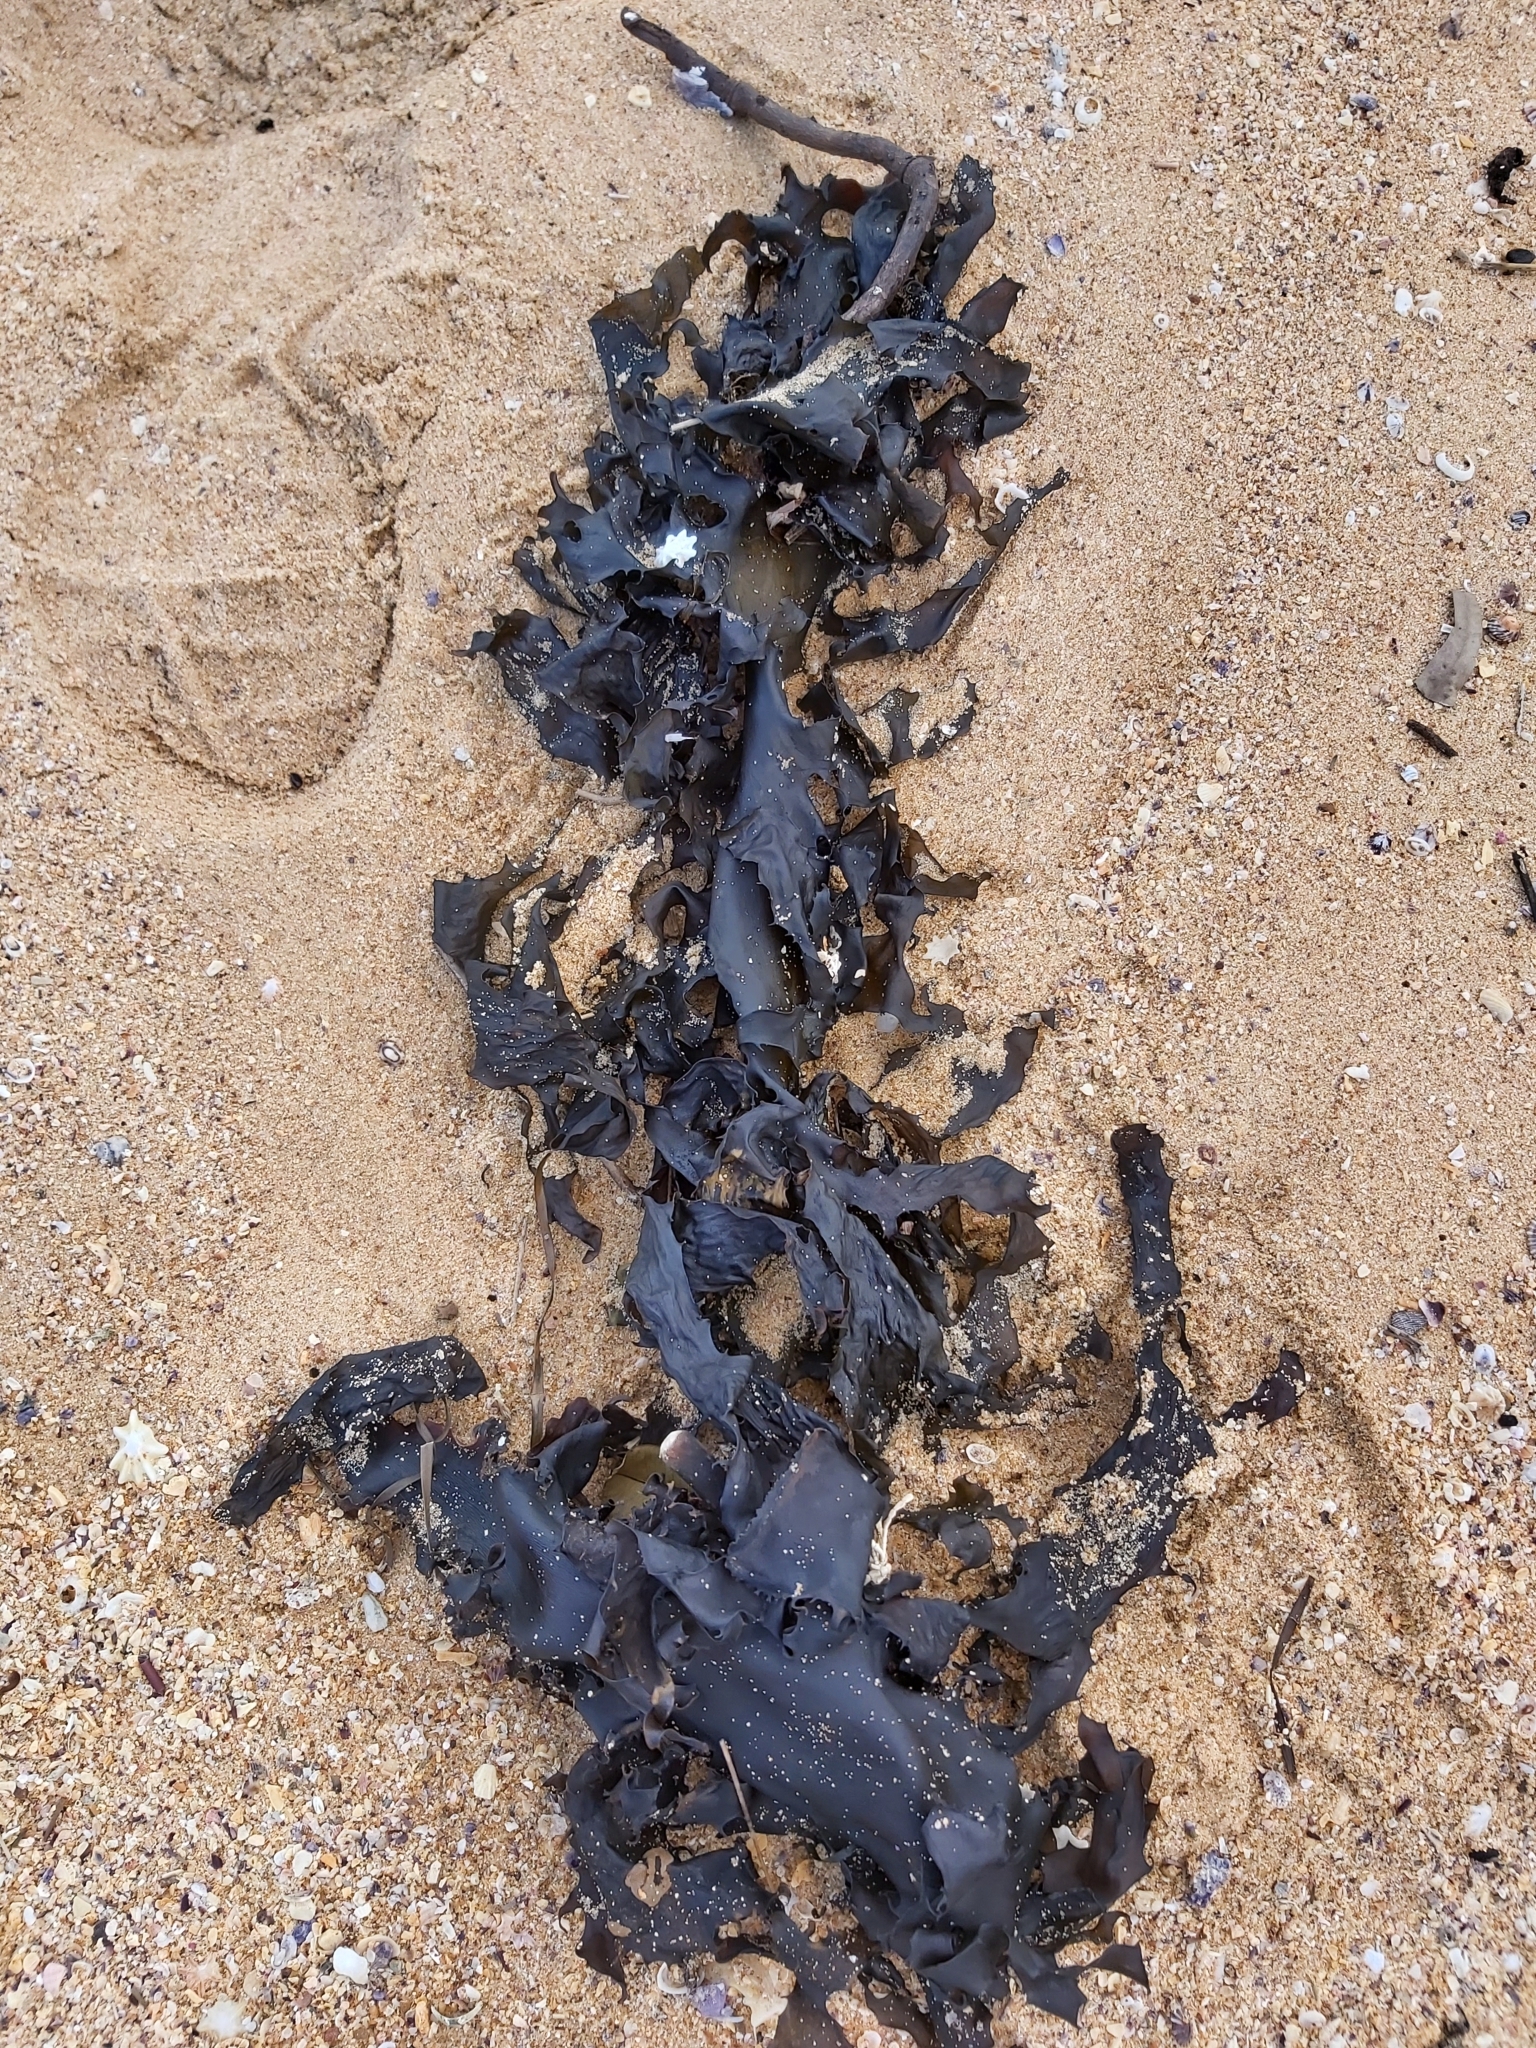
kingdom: Chromista
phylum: Ochrophyta
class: Phaeophyceae
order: Laminariales
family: Lessoniaceae
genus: Ecklonia
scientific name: Ecklonia radiata
